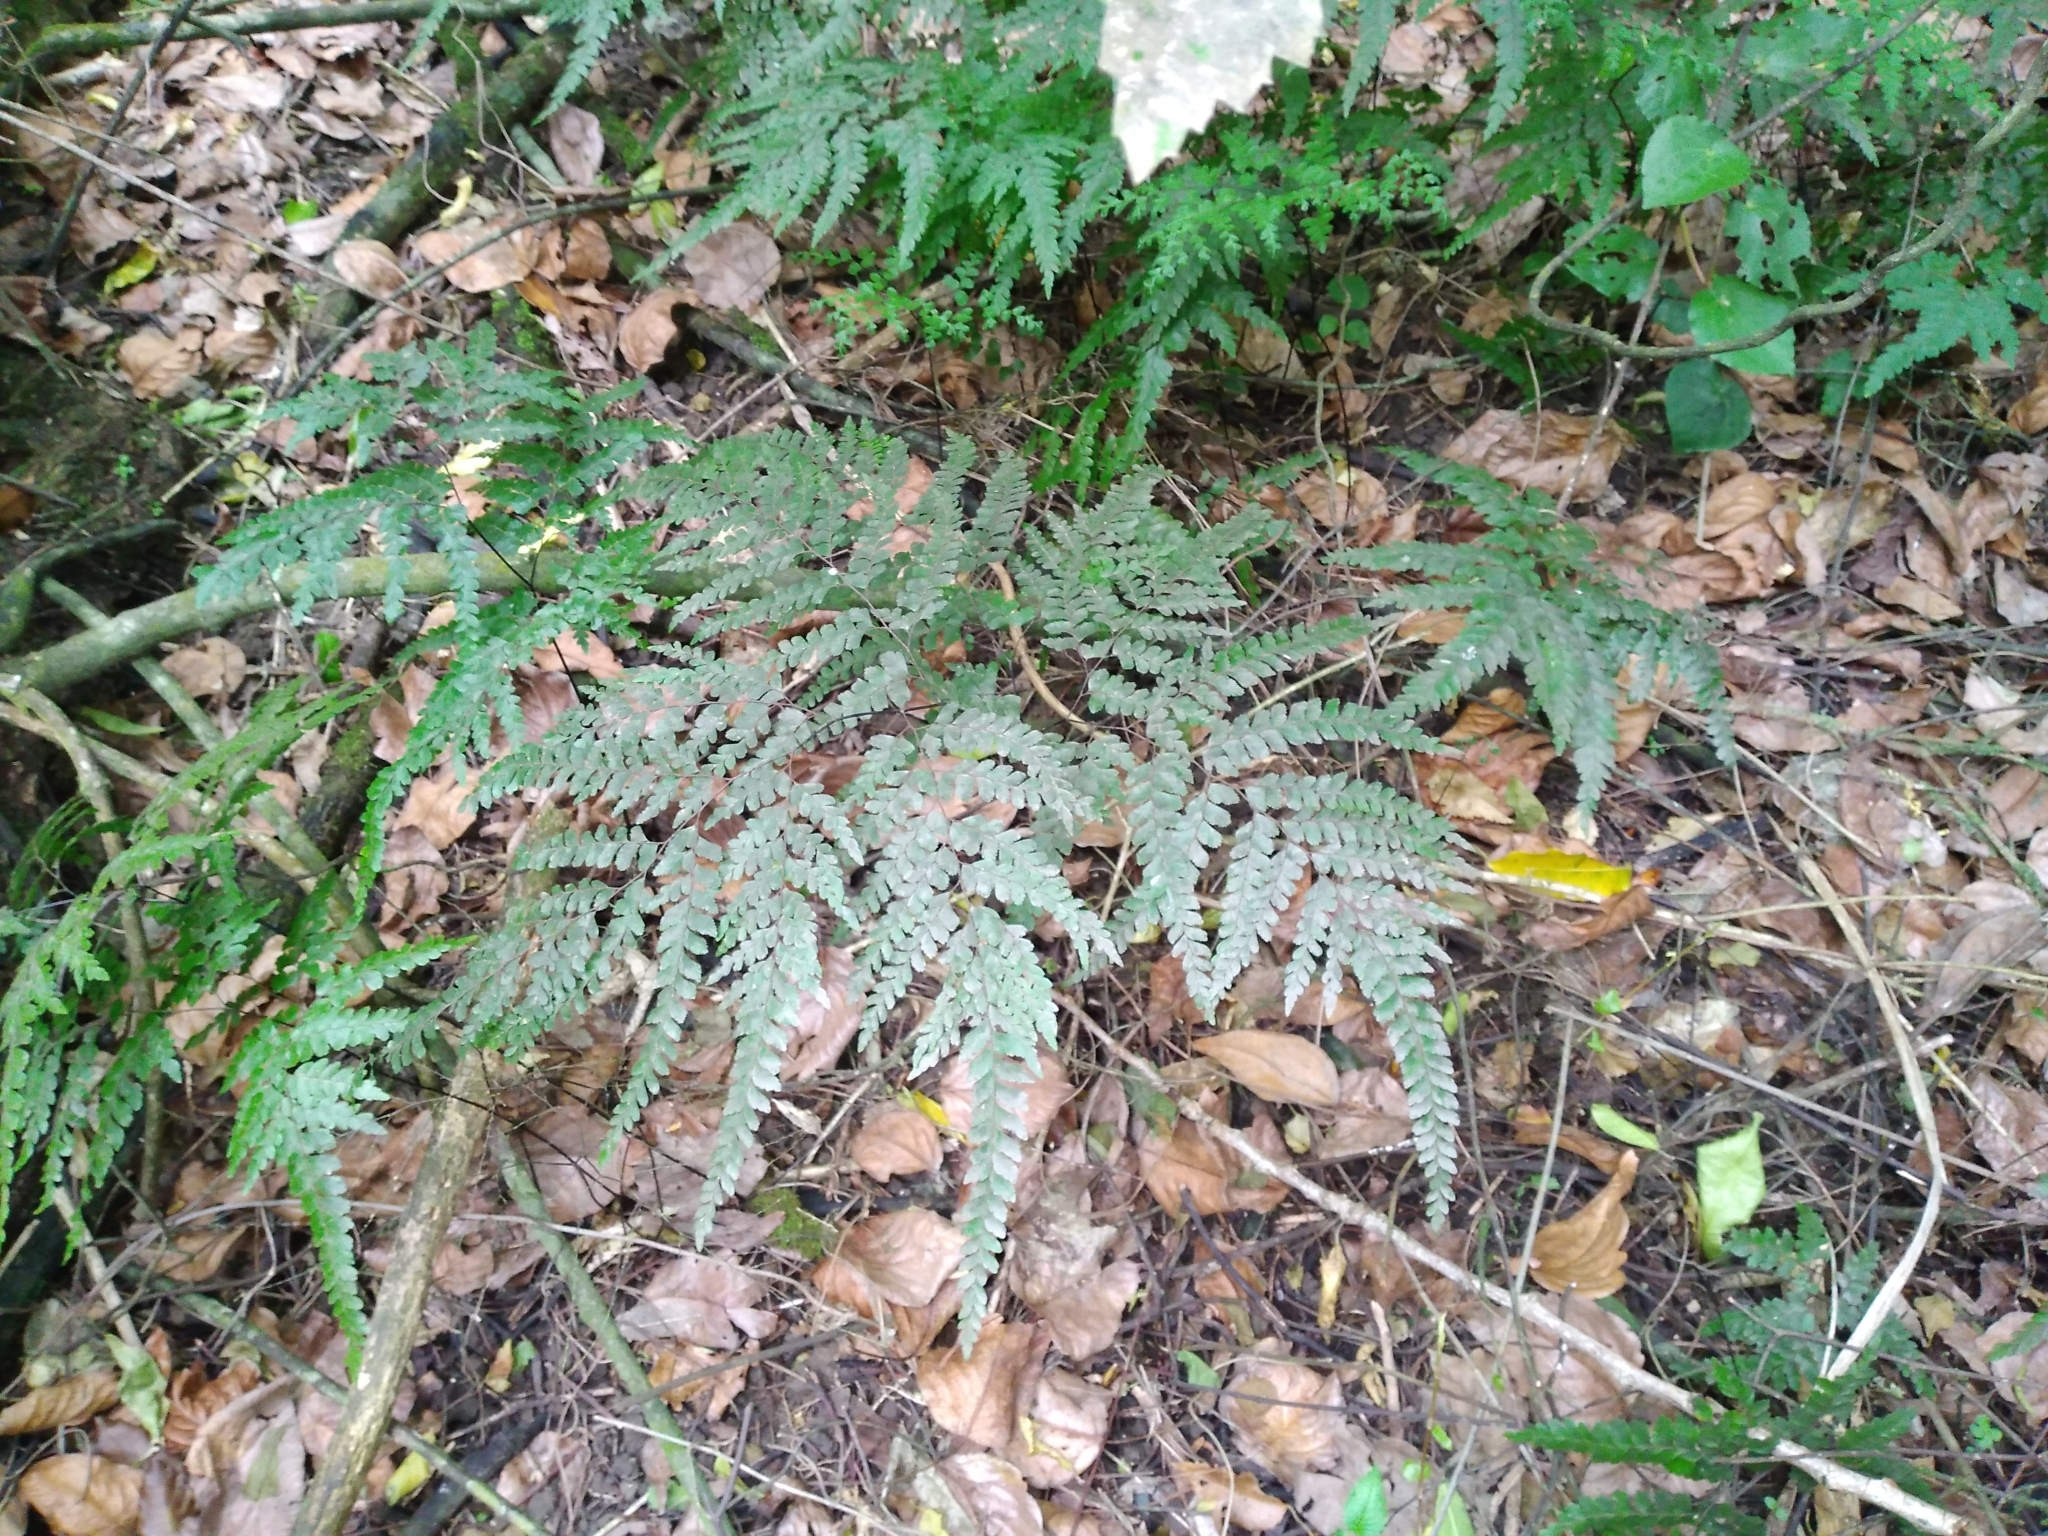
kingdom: Plantae
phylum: Tracheophyta
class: Polypodiopsida
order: Polypodiales
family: Pteridaceae
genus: Adiantum
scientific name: Adiantum formosum
